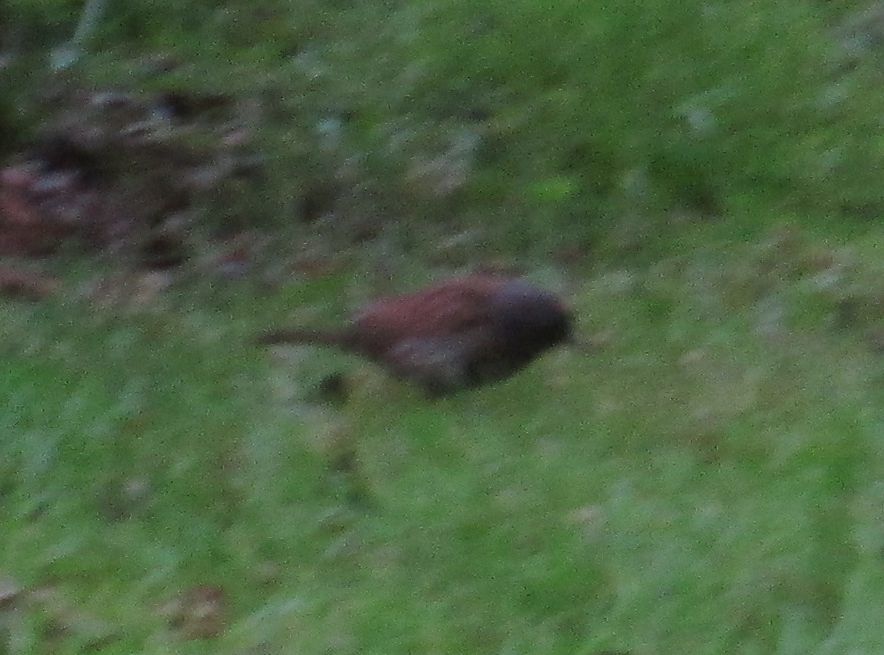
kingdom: Animalia
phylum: Chordata
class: Aves
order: Passeriformes
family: Prunellidae
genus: Prunella
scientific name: Prunella modularis
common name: Dunnock
